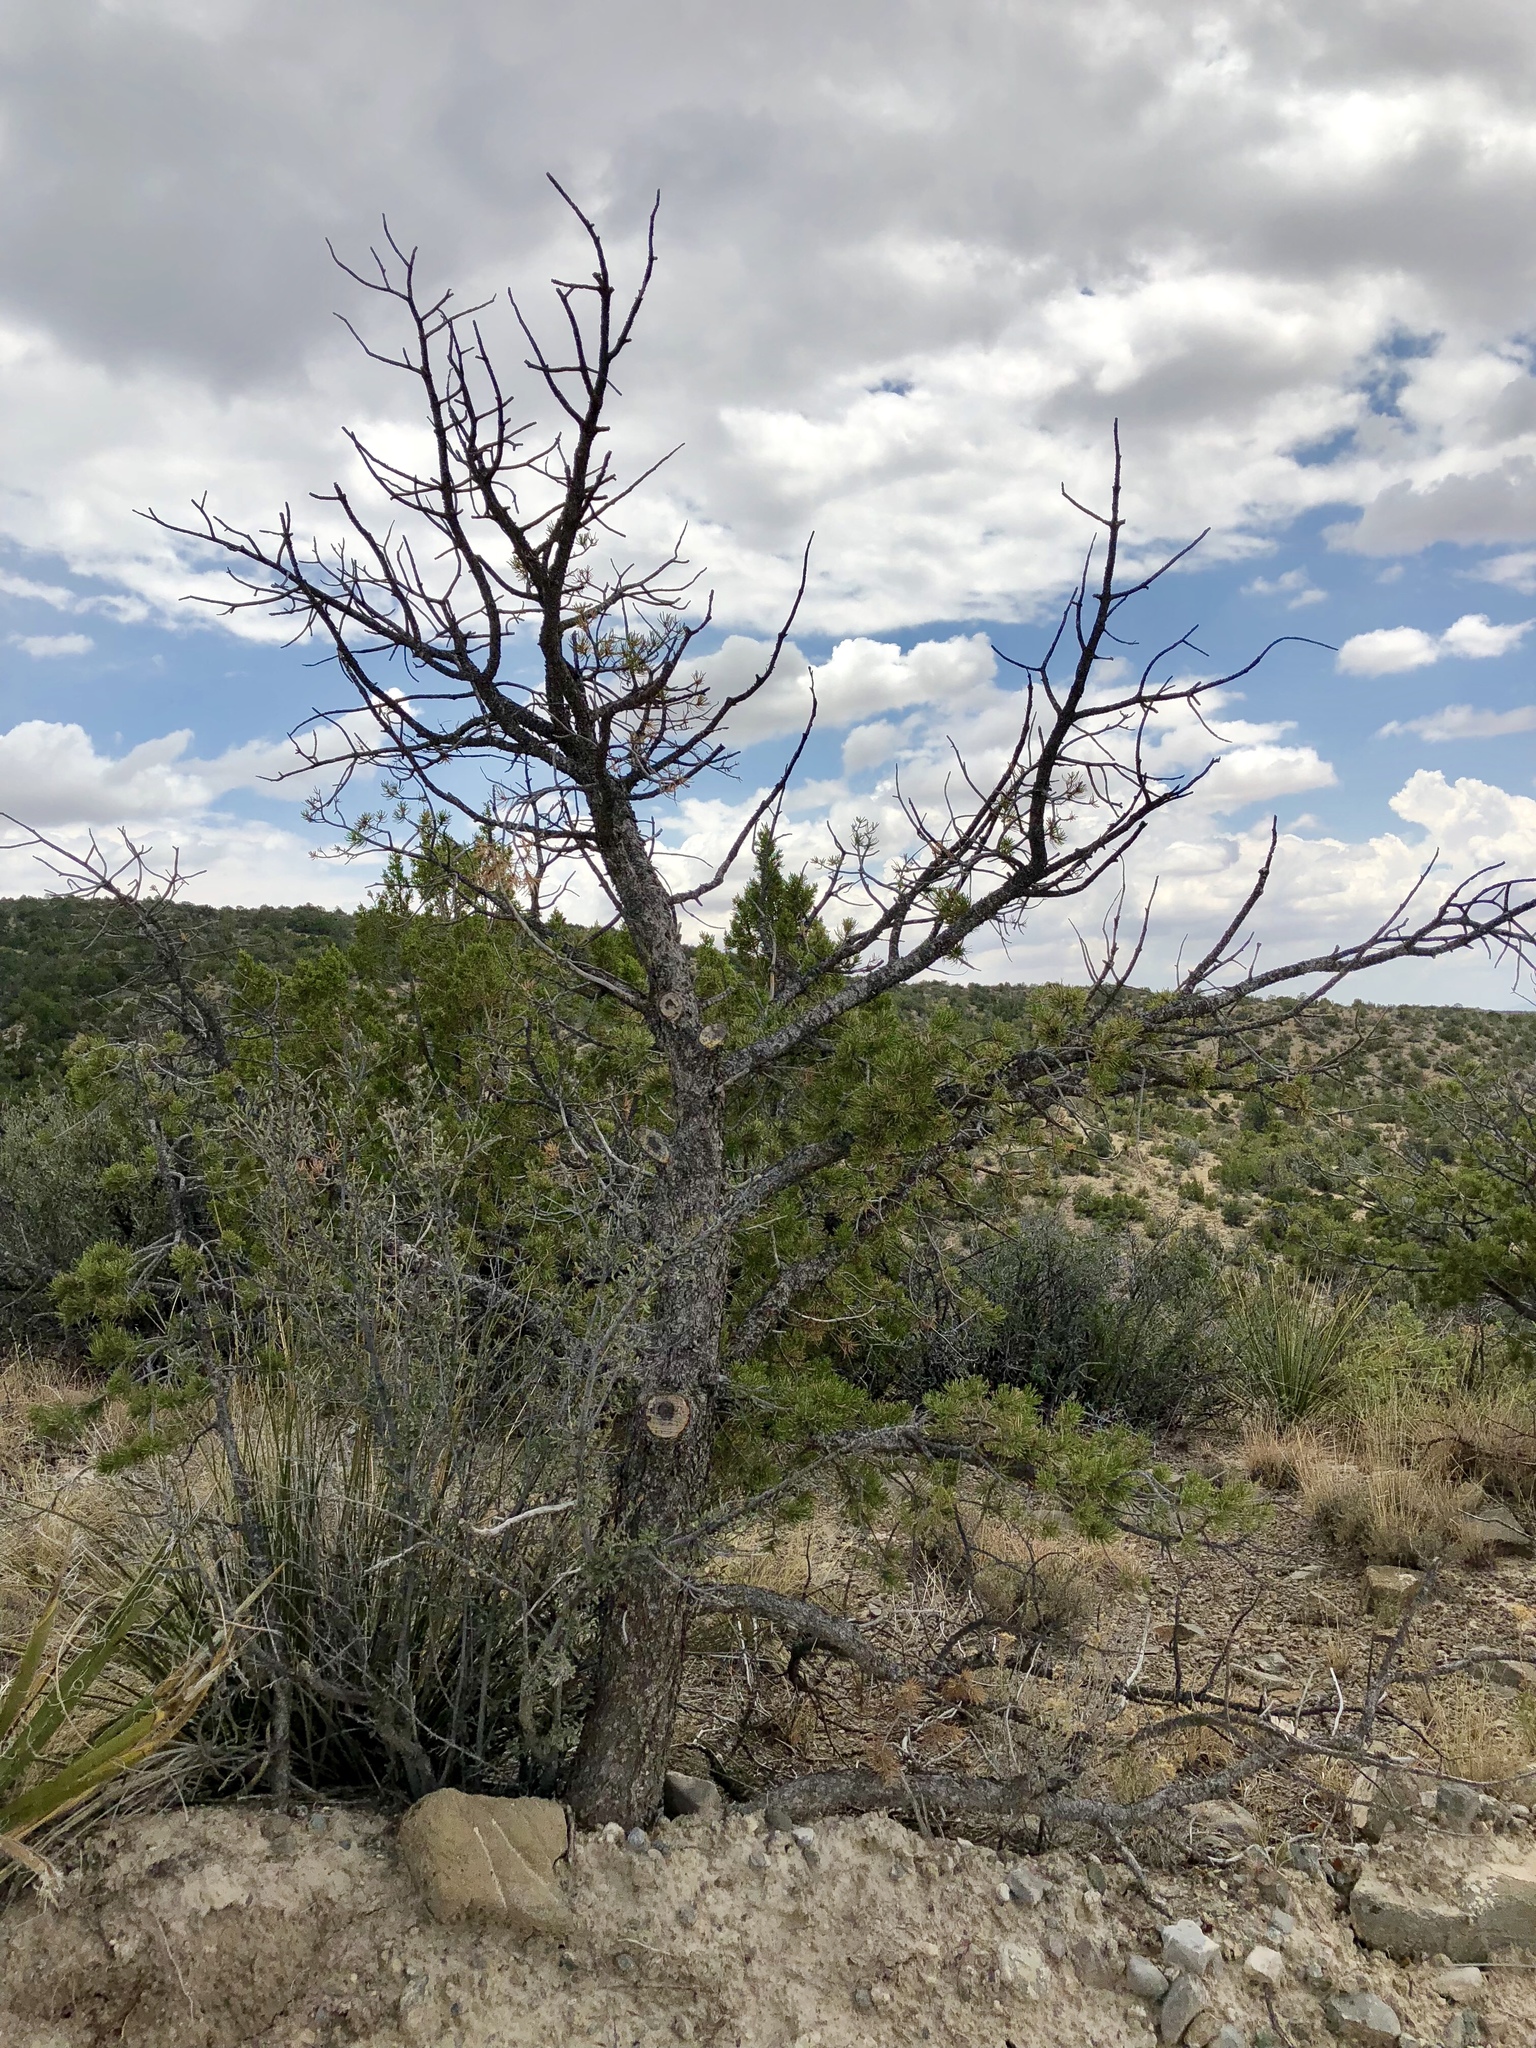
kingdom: Plantae
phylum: Tracheophyta
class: Pinopsida
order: Pinales
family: Pinaceae
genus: Pinus
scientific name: Pinus edulis
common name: Colorado pinyon
